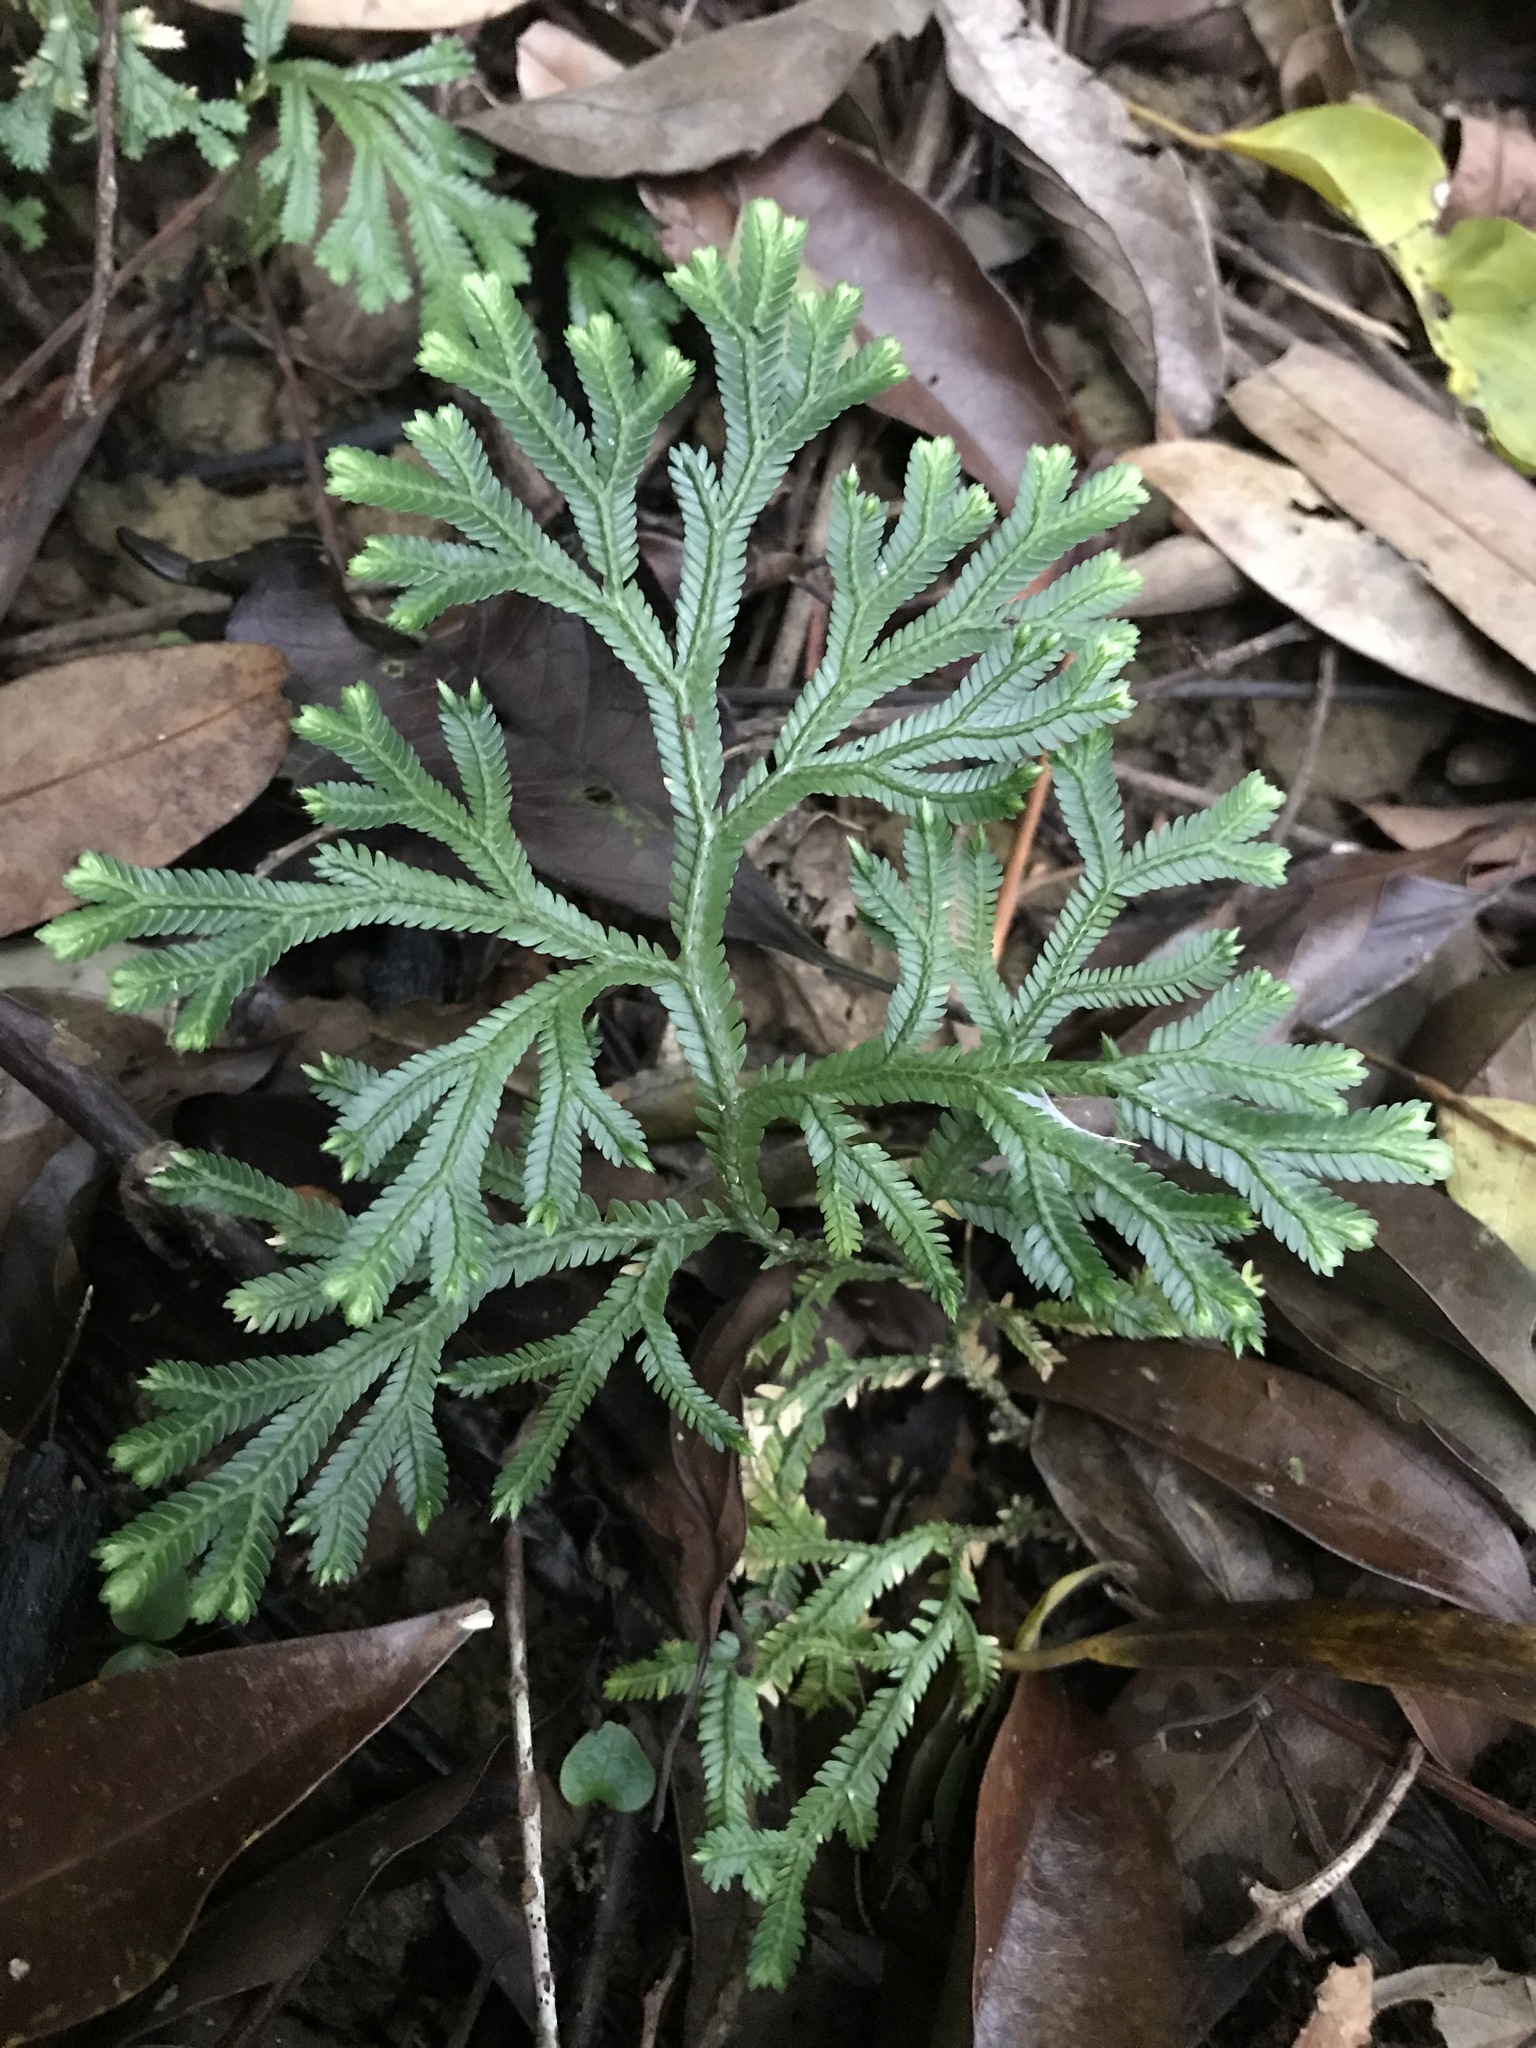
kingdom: Plantae
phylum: Tracheophyta
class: Lycopodiopsida
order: Selaginellales
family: Selaginellaceae
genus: Selaginella
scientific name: Selaginella doederleinii
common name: Greater selaginella
